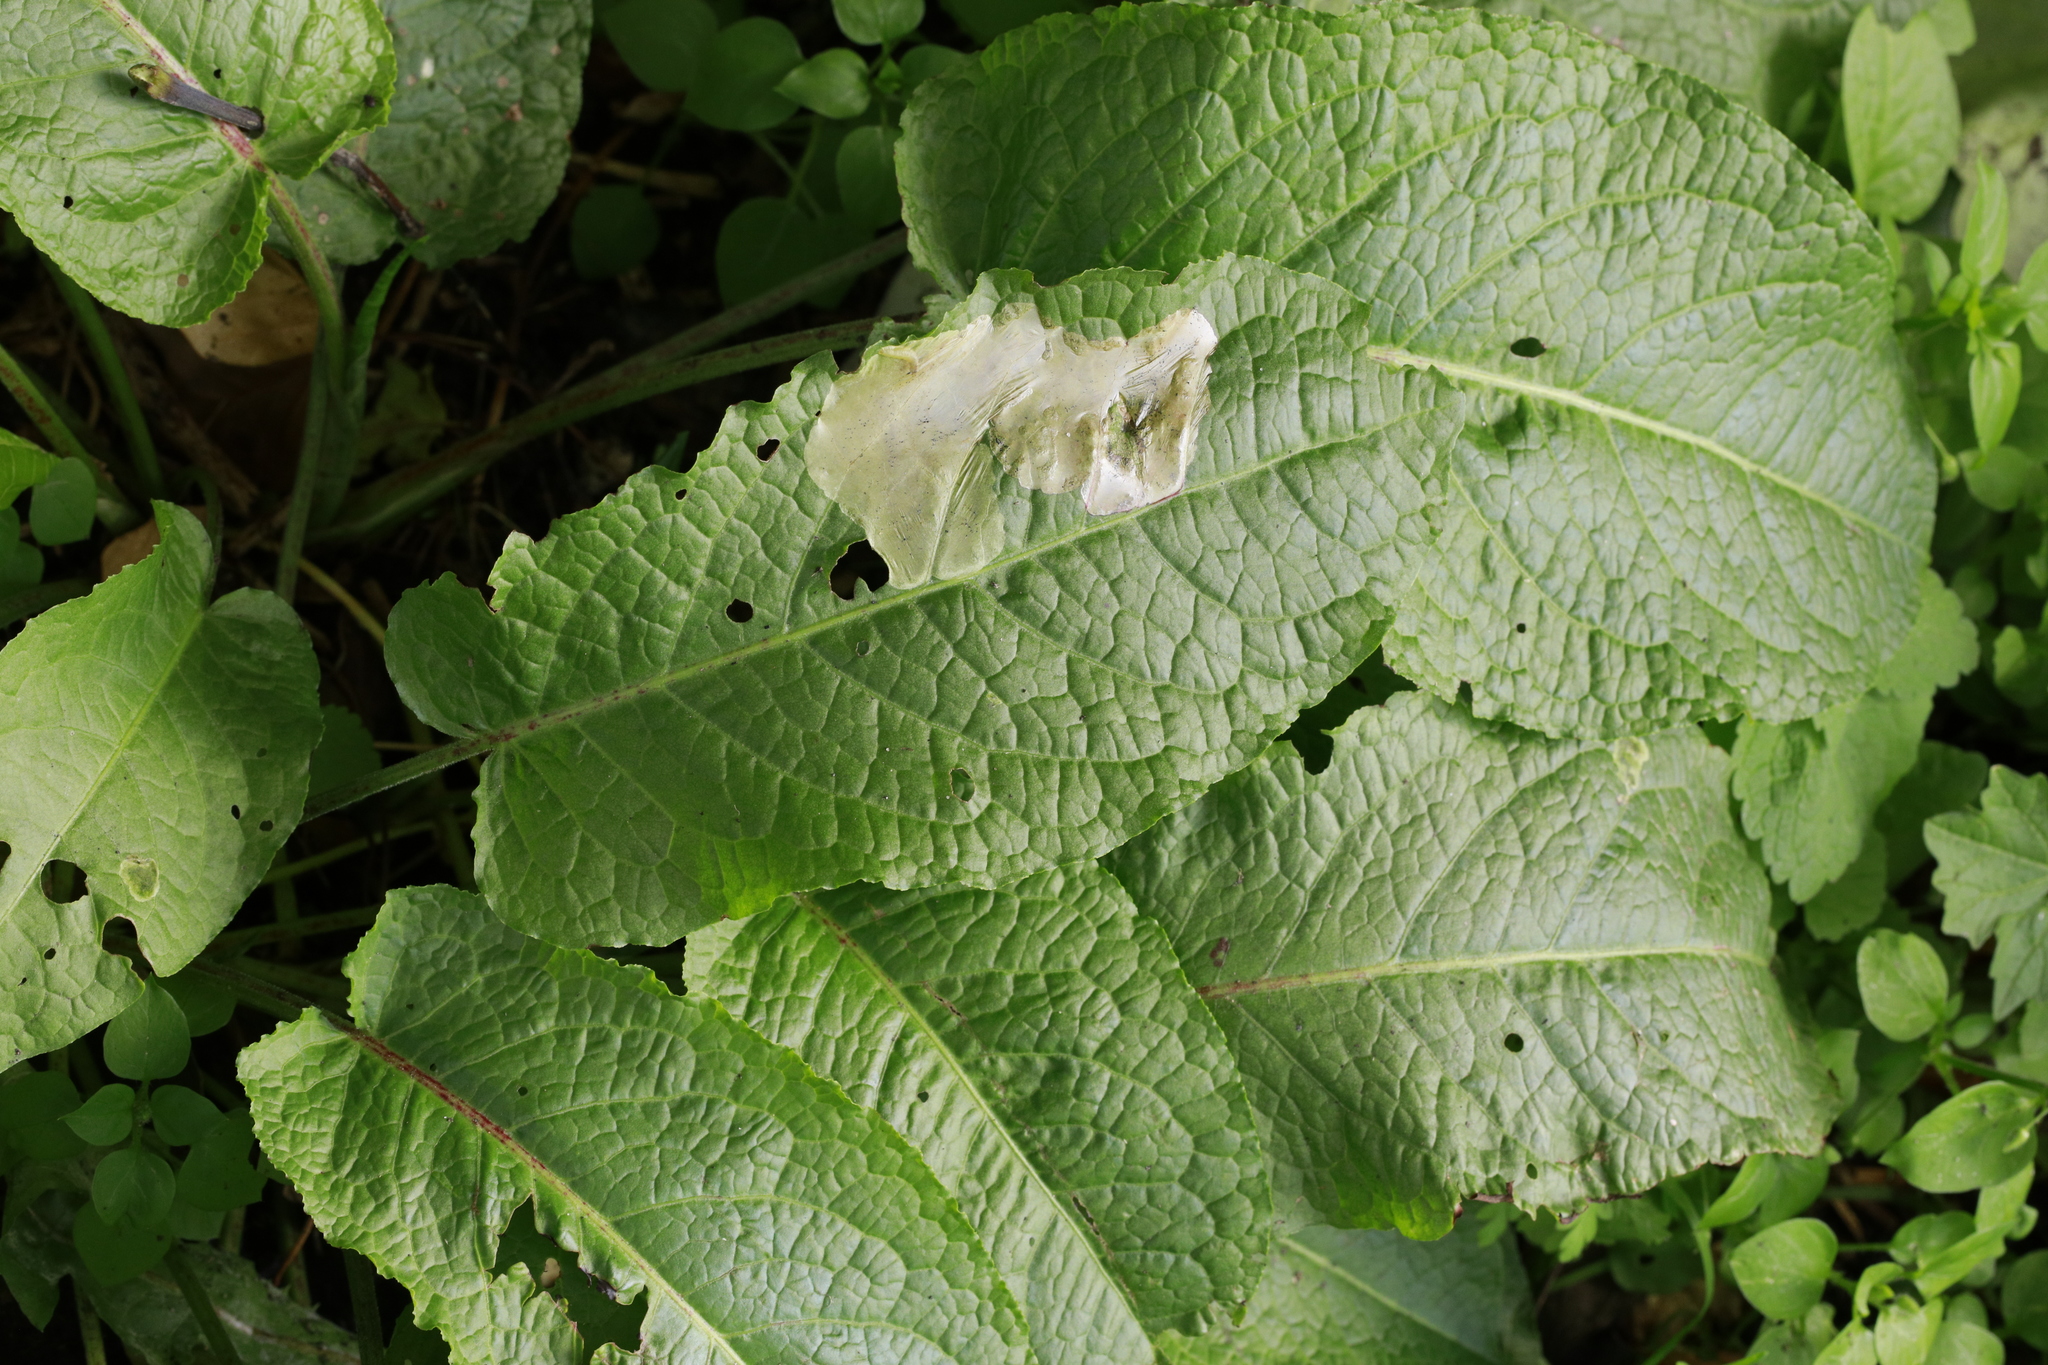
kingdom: Plantae
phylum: Tracheophyta
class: Magnoliopsida
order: Caryophyllales
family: Polygonaceae
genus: Rumex
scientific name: Rumex obtusifolius
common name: Bitter dock
